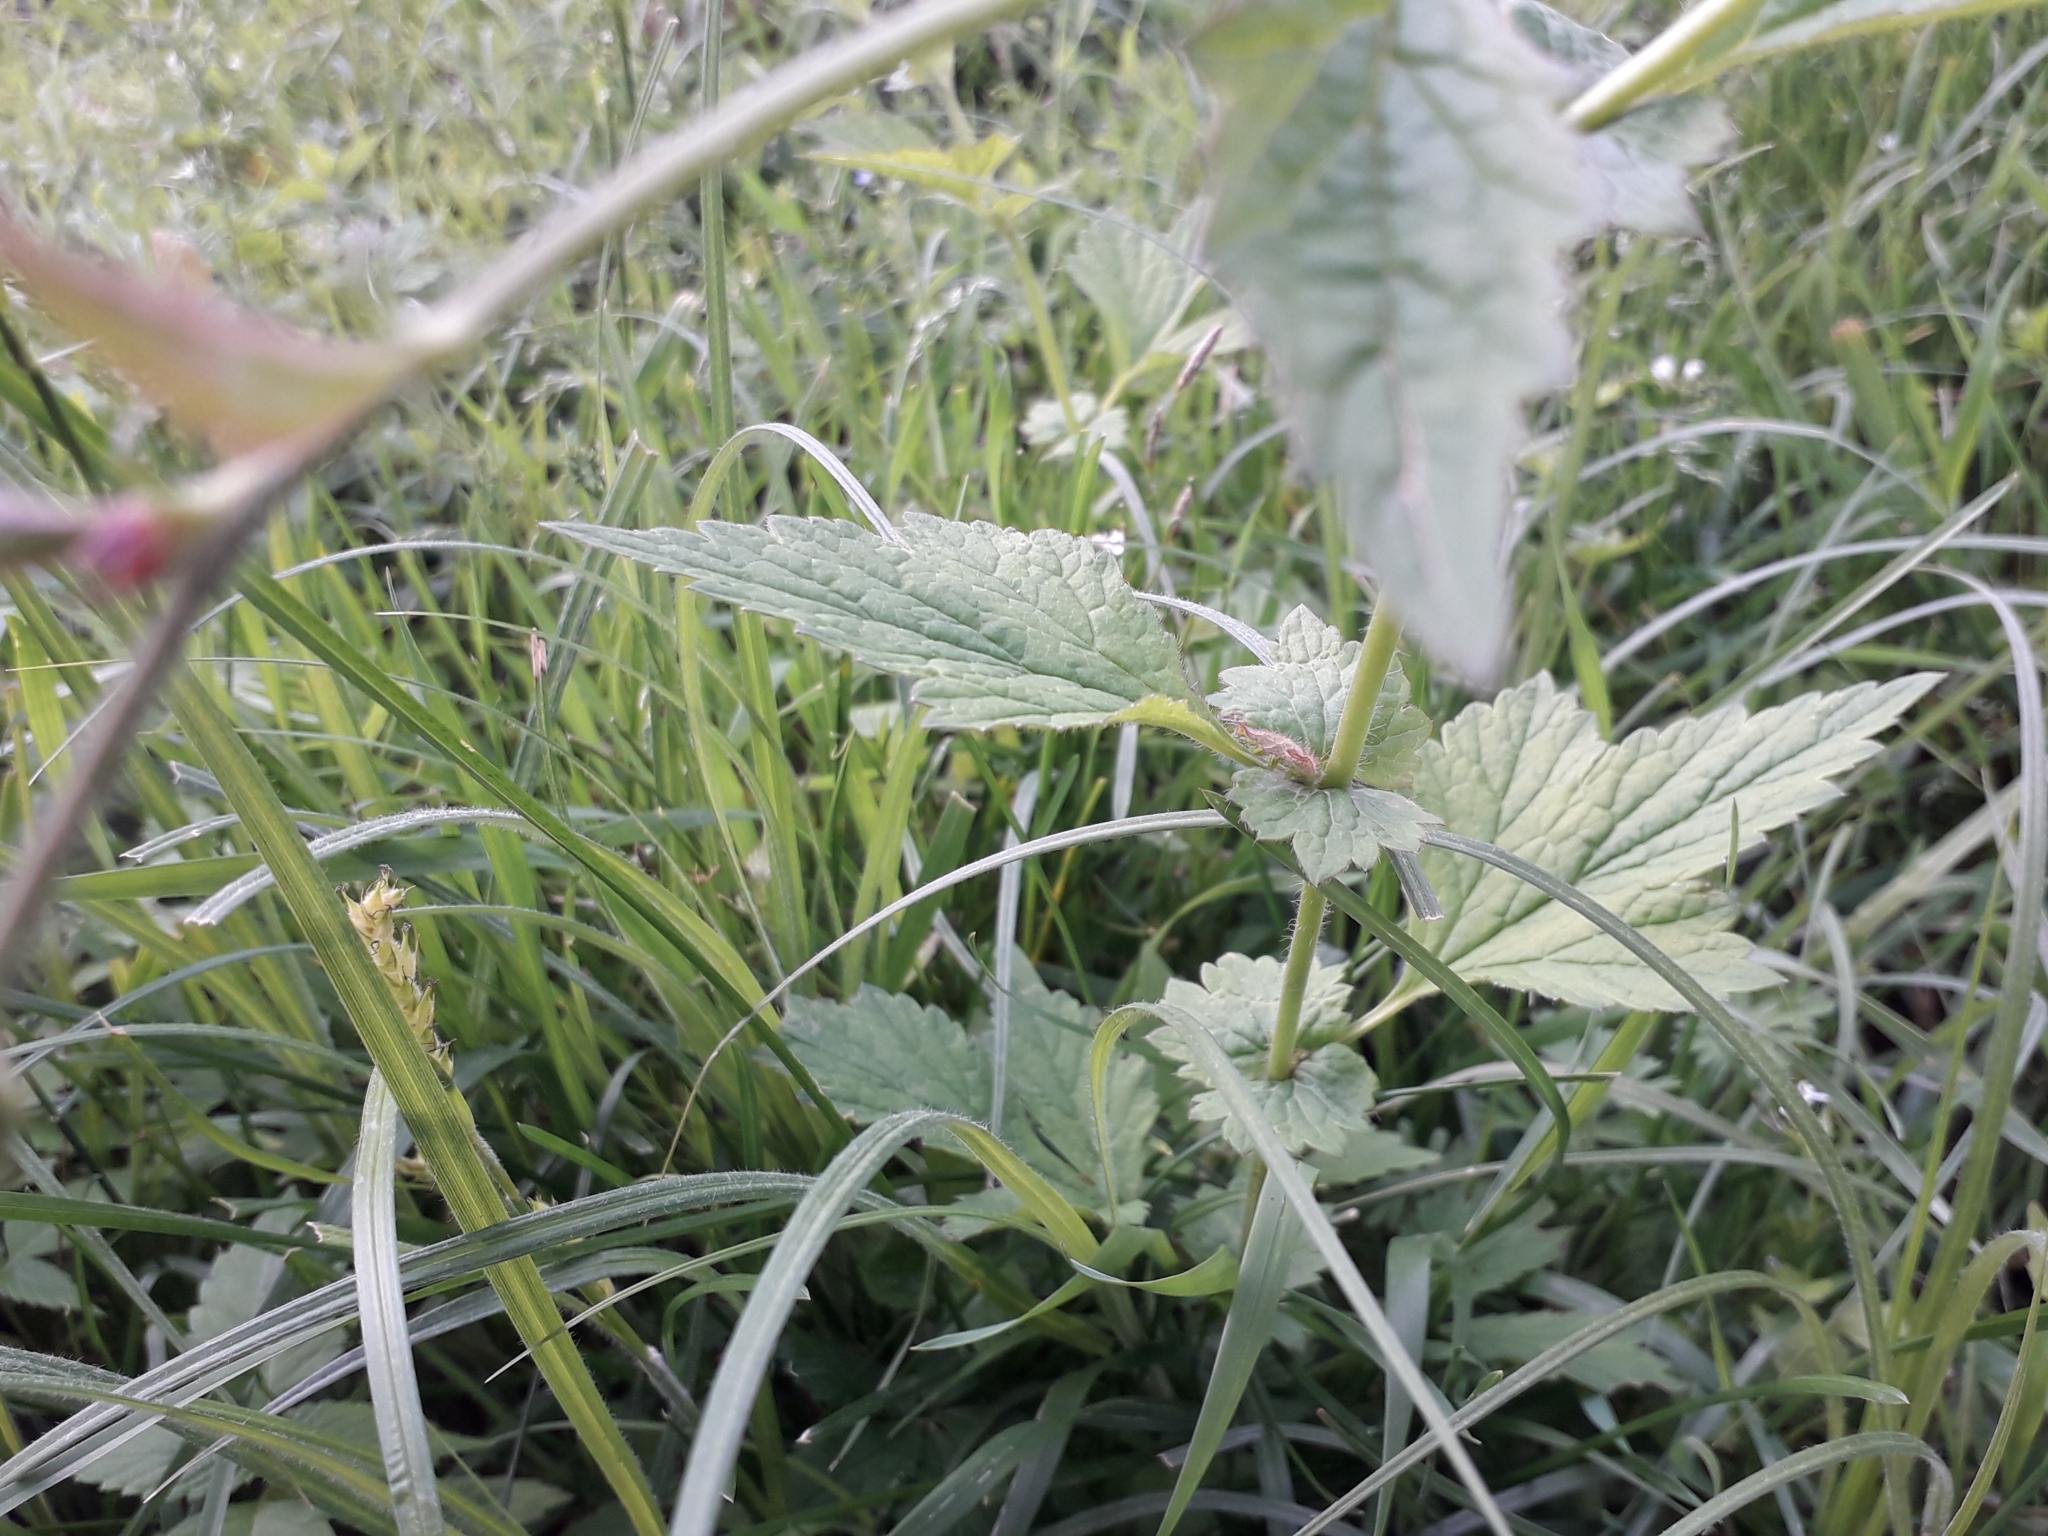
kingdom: Plantae
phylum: Tracheophyta
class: Magnoliopsida
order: Rosales
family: Rosaceae
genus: Geum
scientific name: Geum urbanum
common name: Wood avens
